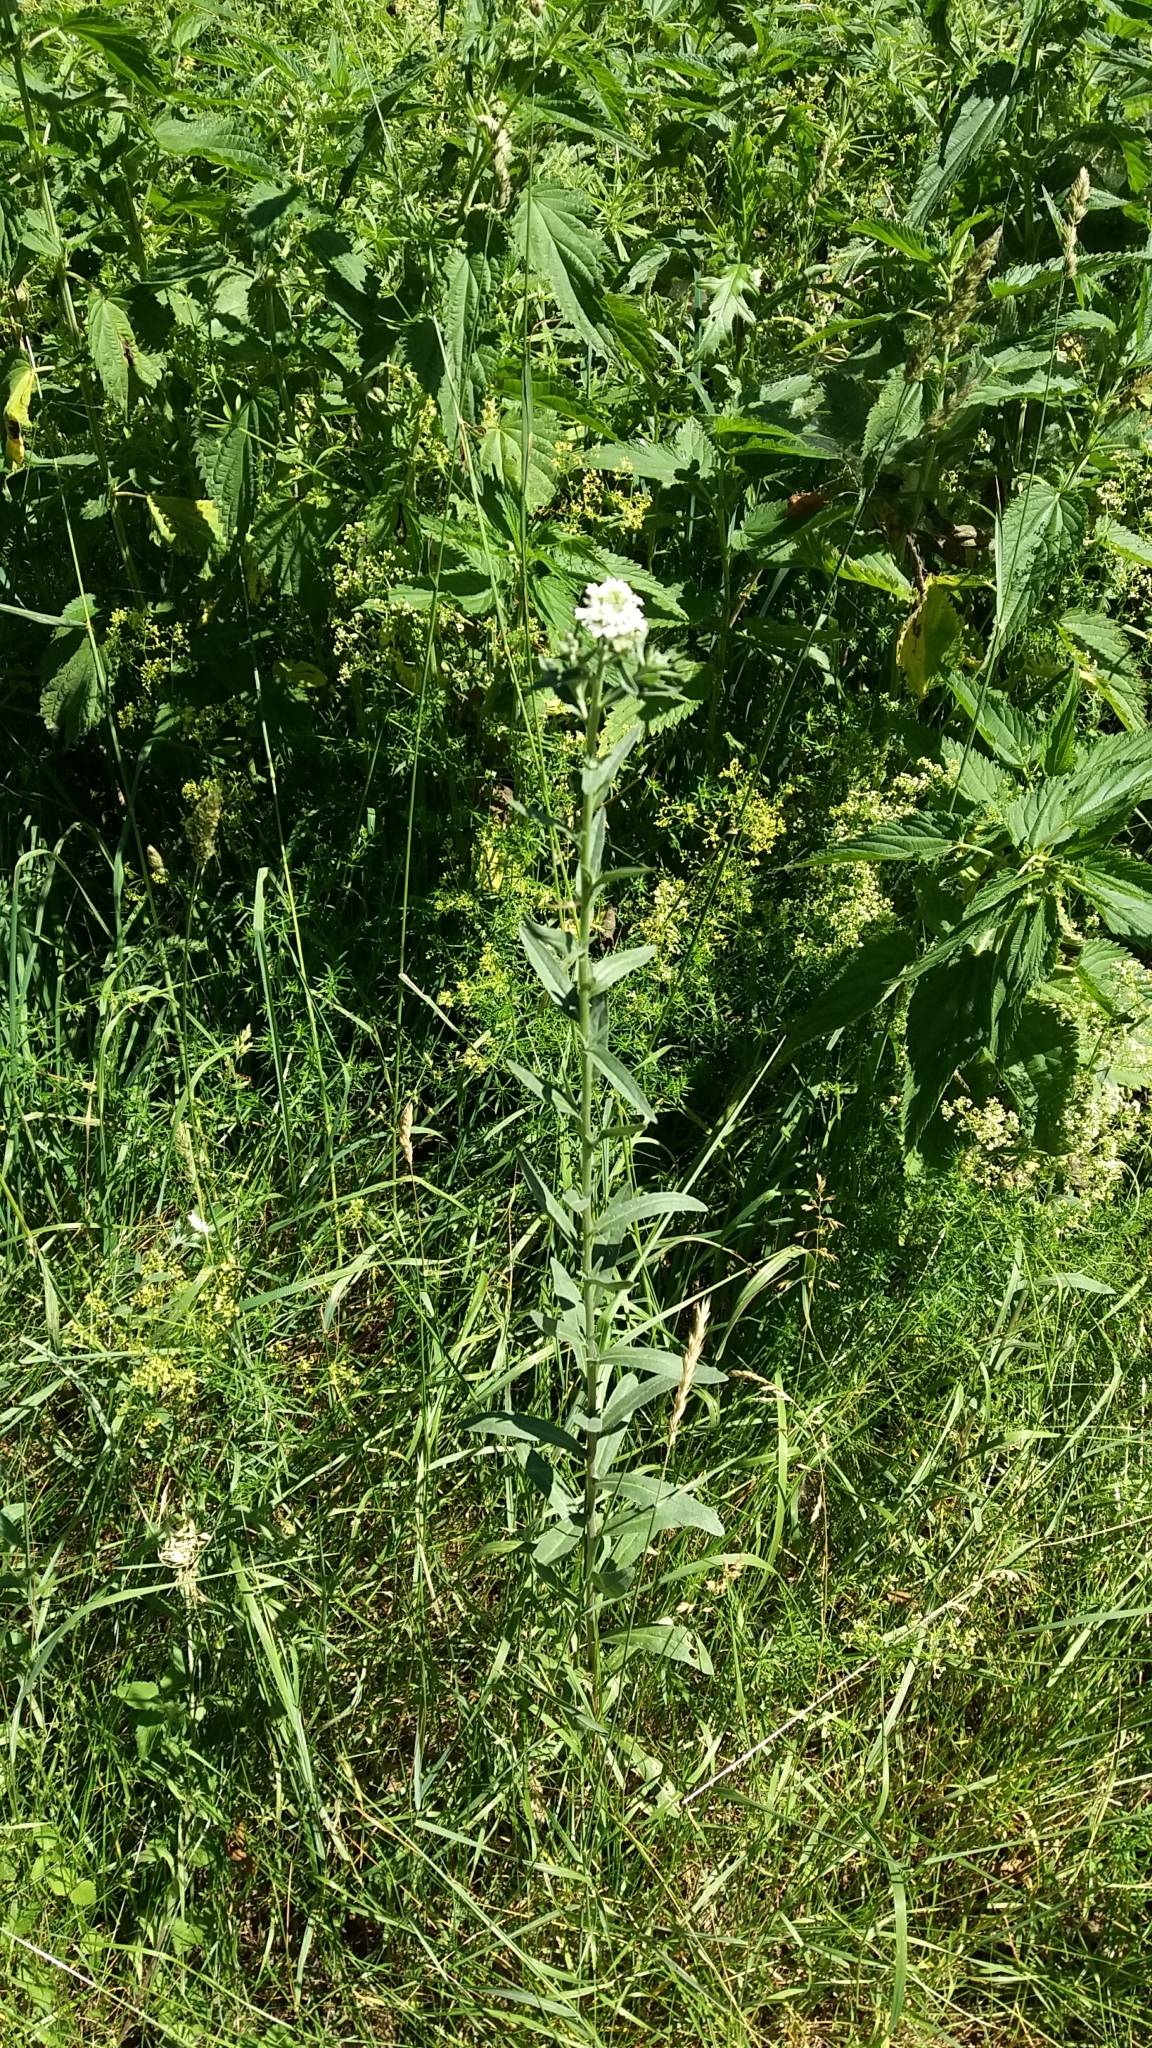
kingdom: Plantae
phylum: Tracheophyta
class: Magnoliopsida
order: Brassicales
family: Brassicaceae
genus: Berteroa
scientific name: Berteroa incana
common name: Hoary alison
